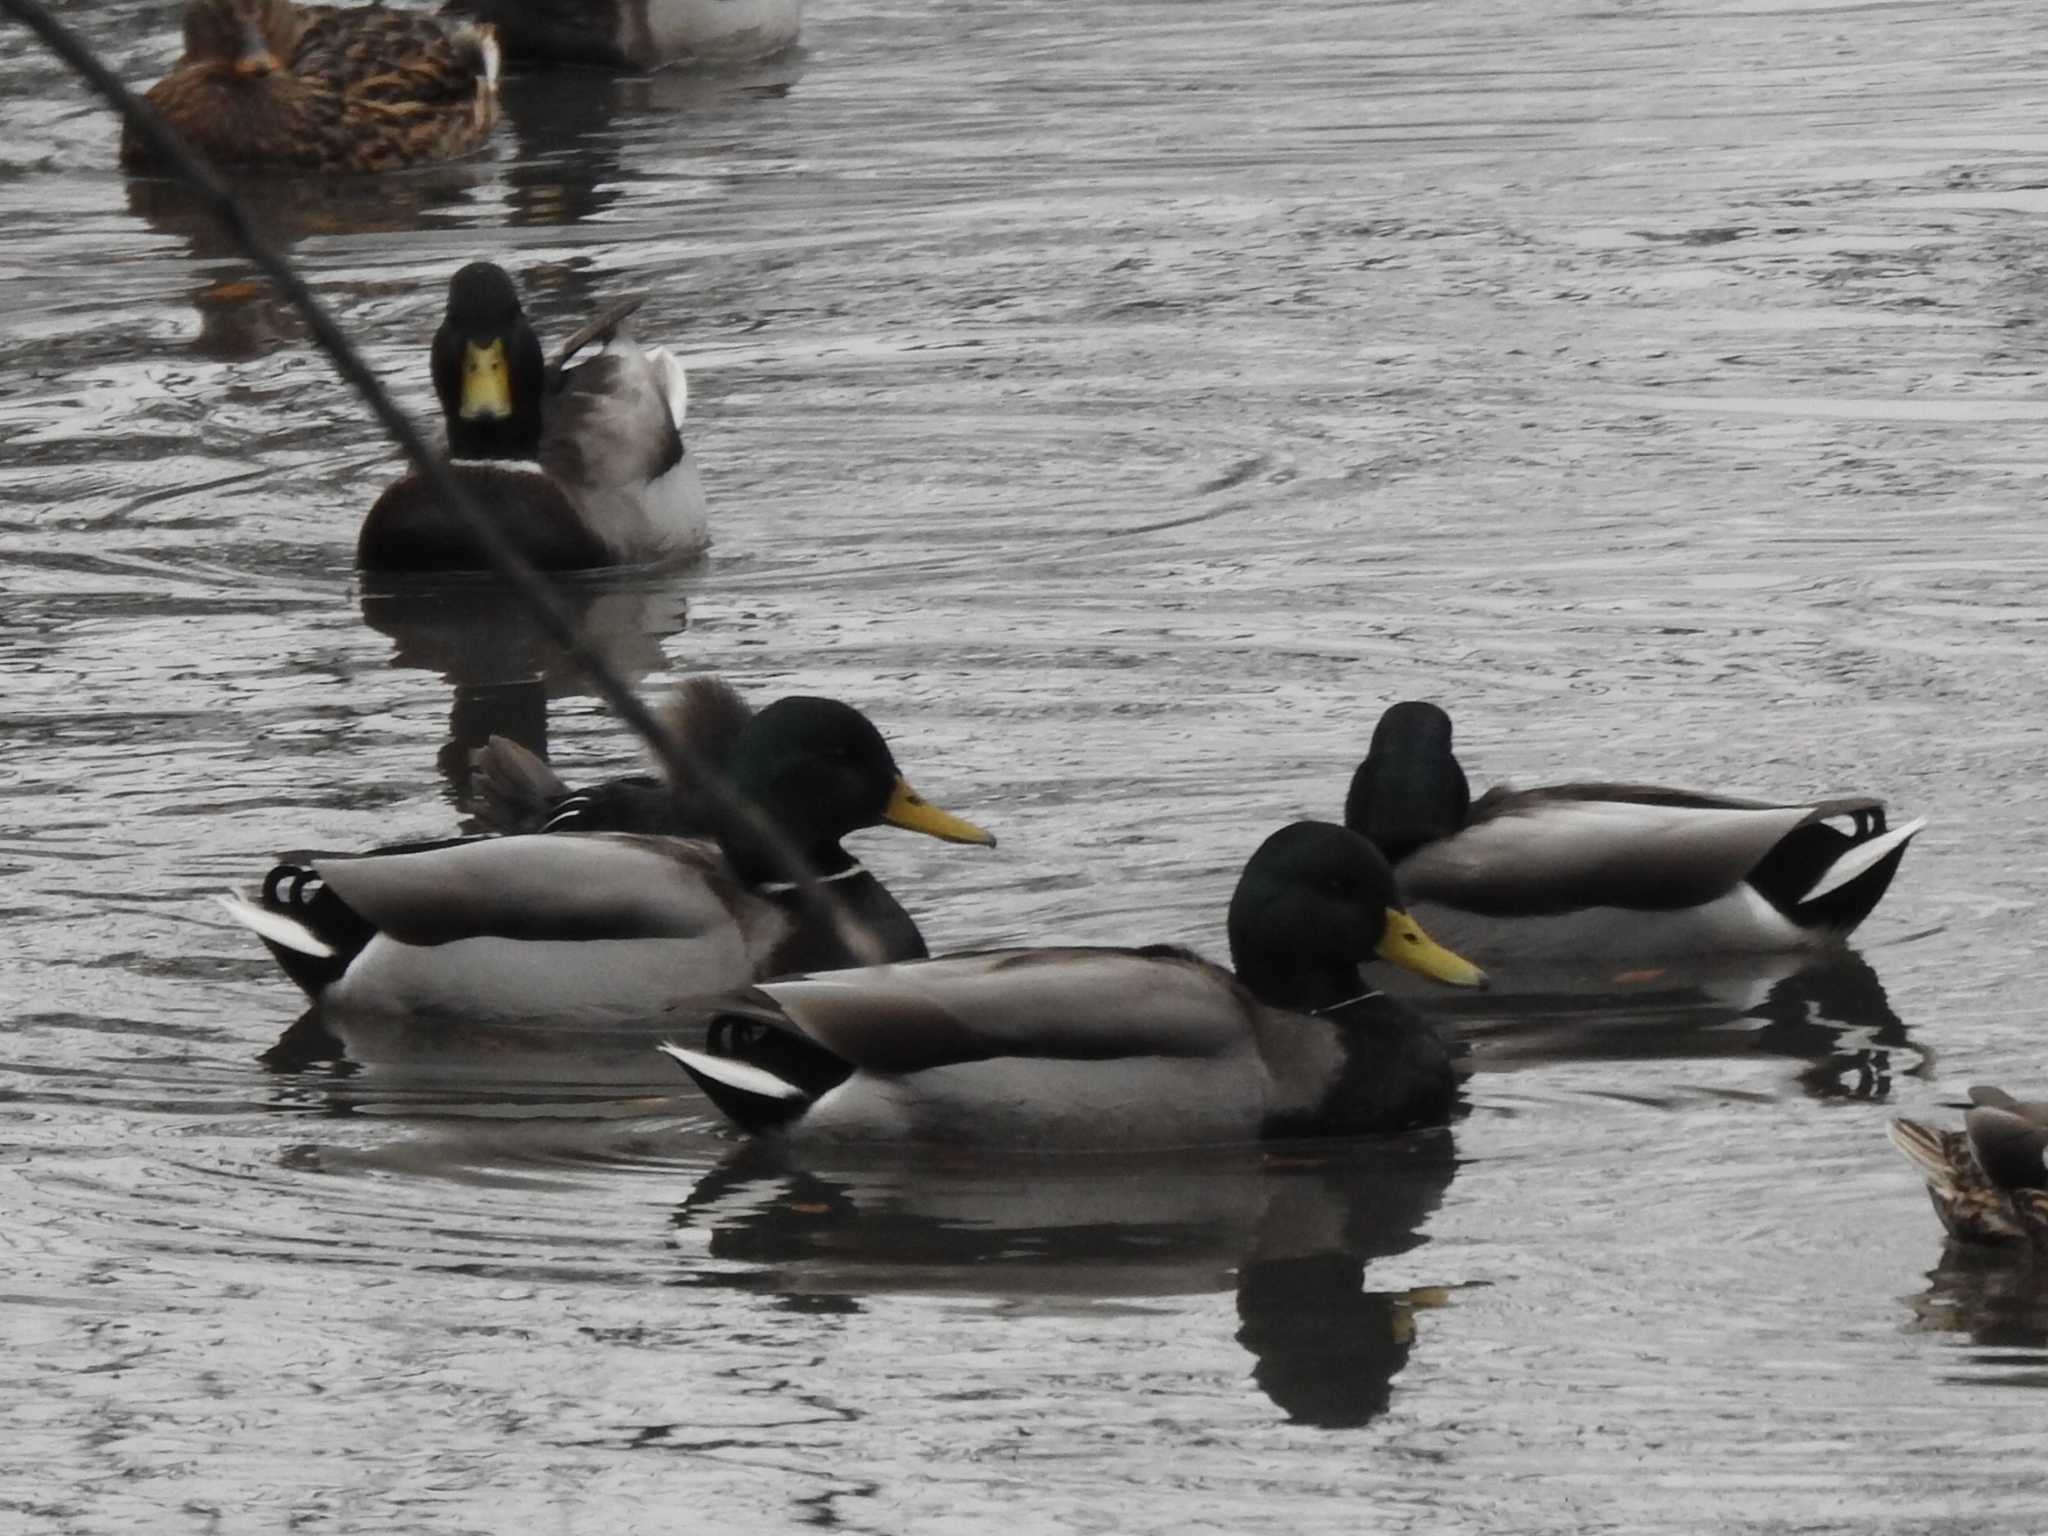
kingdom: Animalia
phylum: Chordata
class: Aves
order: Anseriformes
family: Anatidae
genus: Anas
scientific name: Anas platyrhynchos
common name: Mallard
